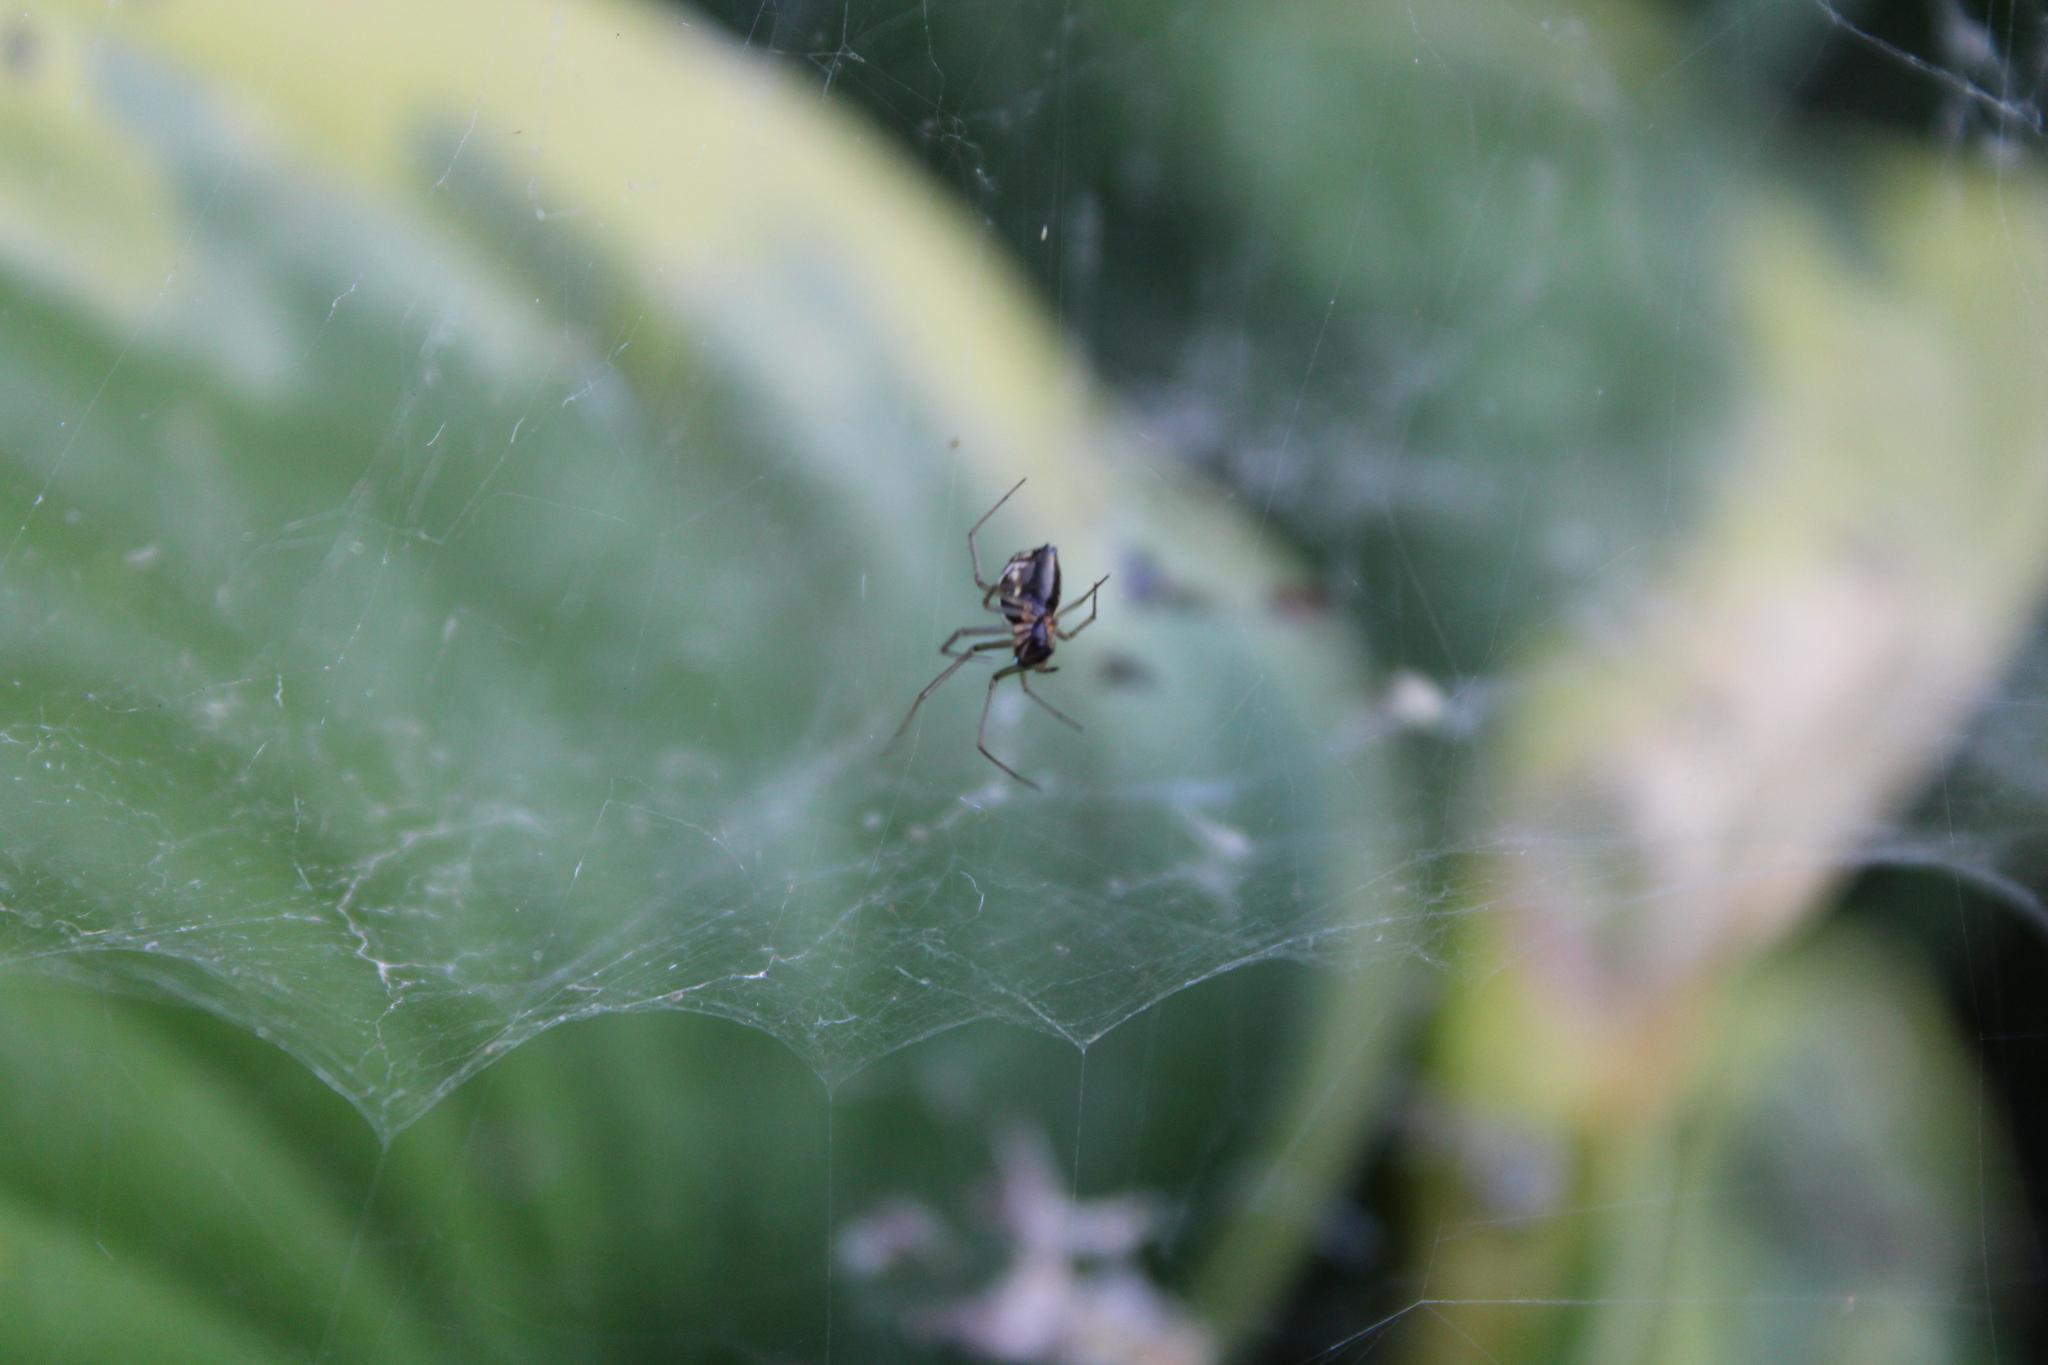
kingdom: Animalia
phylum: Arthropoda
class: Arachnida
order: Araneae
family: Linyphiidae
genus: Frontinella
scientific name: Frontinella pyramitela
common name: Bowl-and-doily spider
